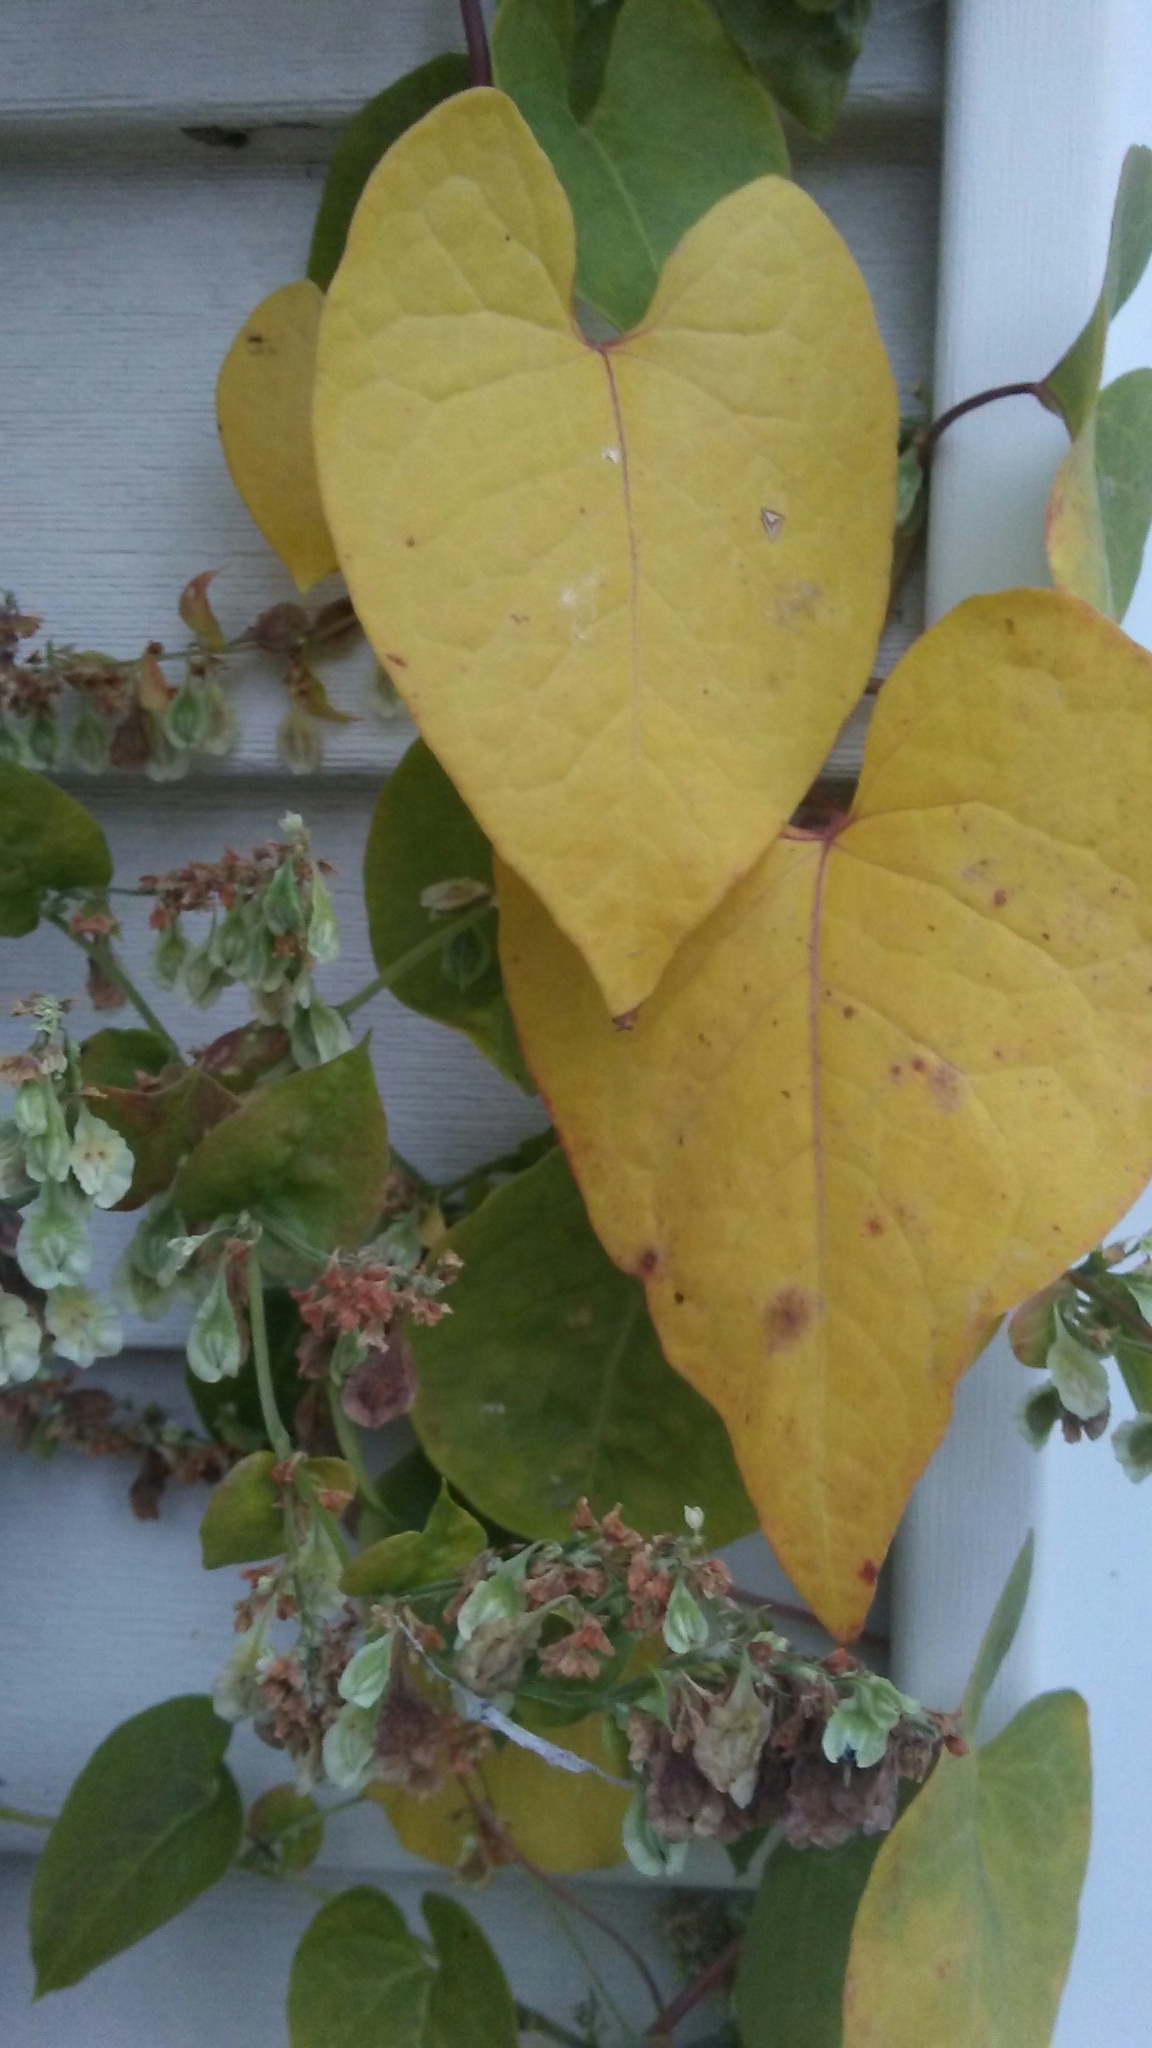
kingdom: Plantae
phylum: Tracheophyta
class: Magnoliopsida
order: Caryophyllales
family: Polygonaceae
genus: Fallopia
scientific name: Fallopia scandens
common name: Climbing false buckwheat
